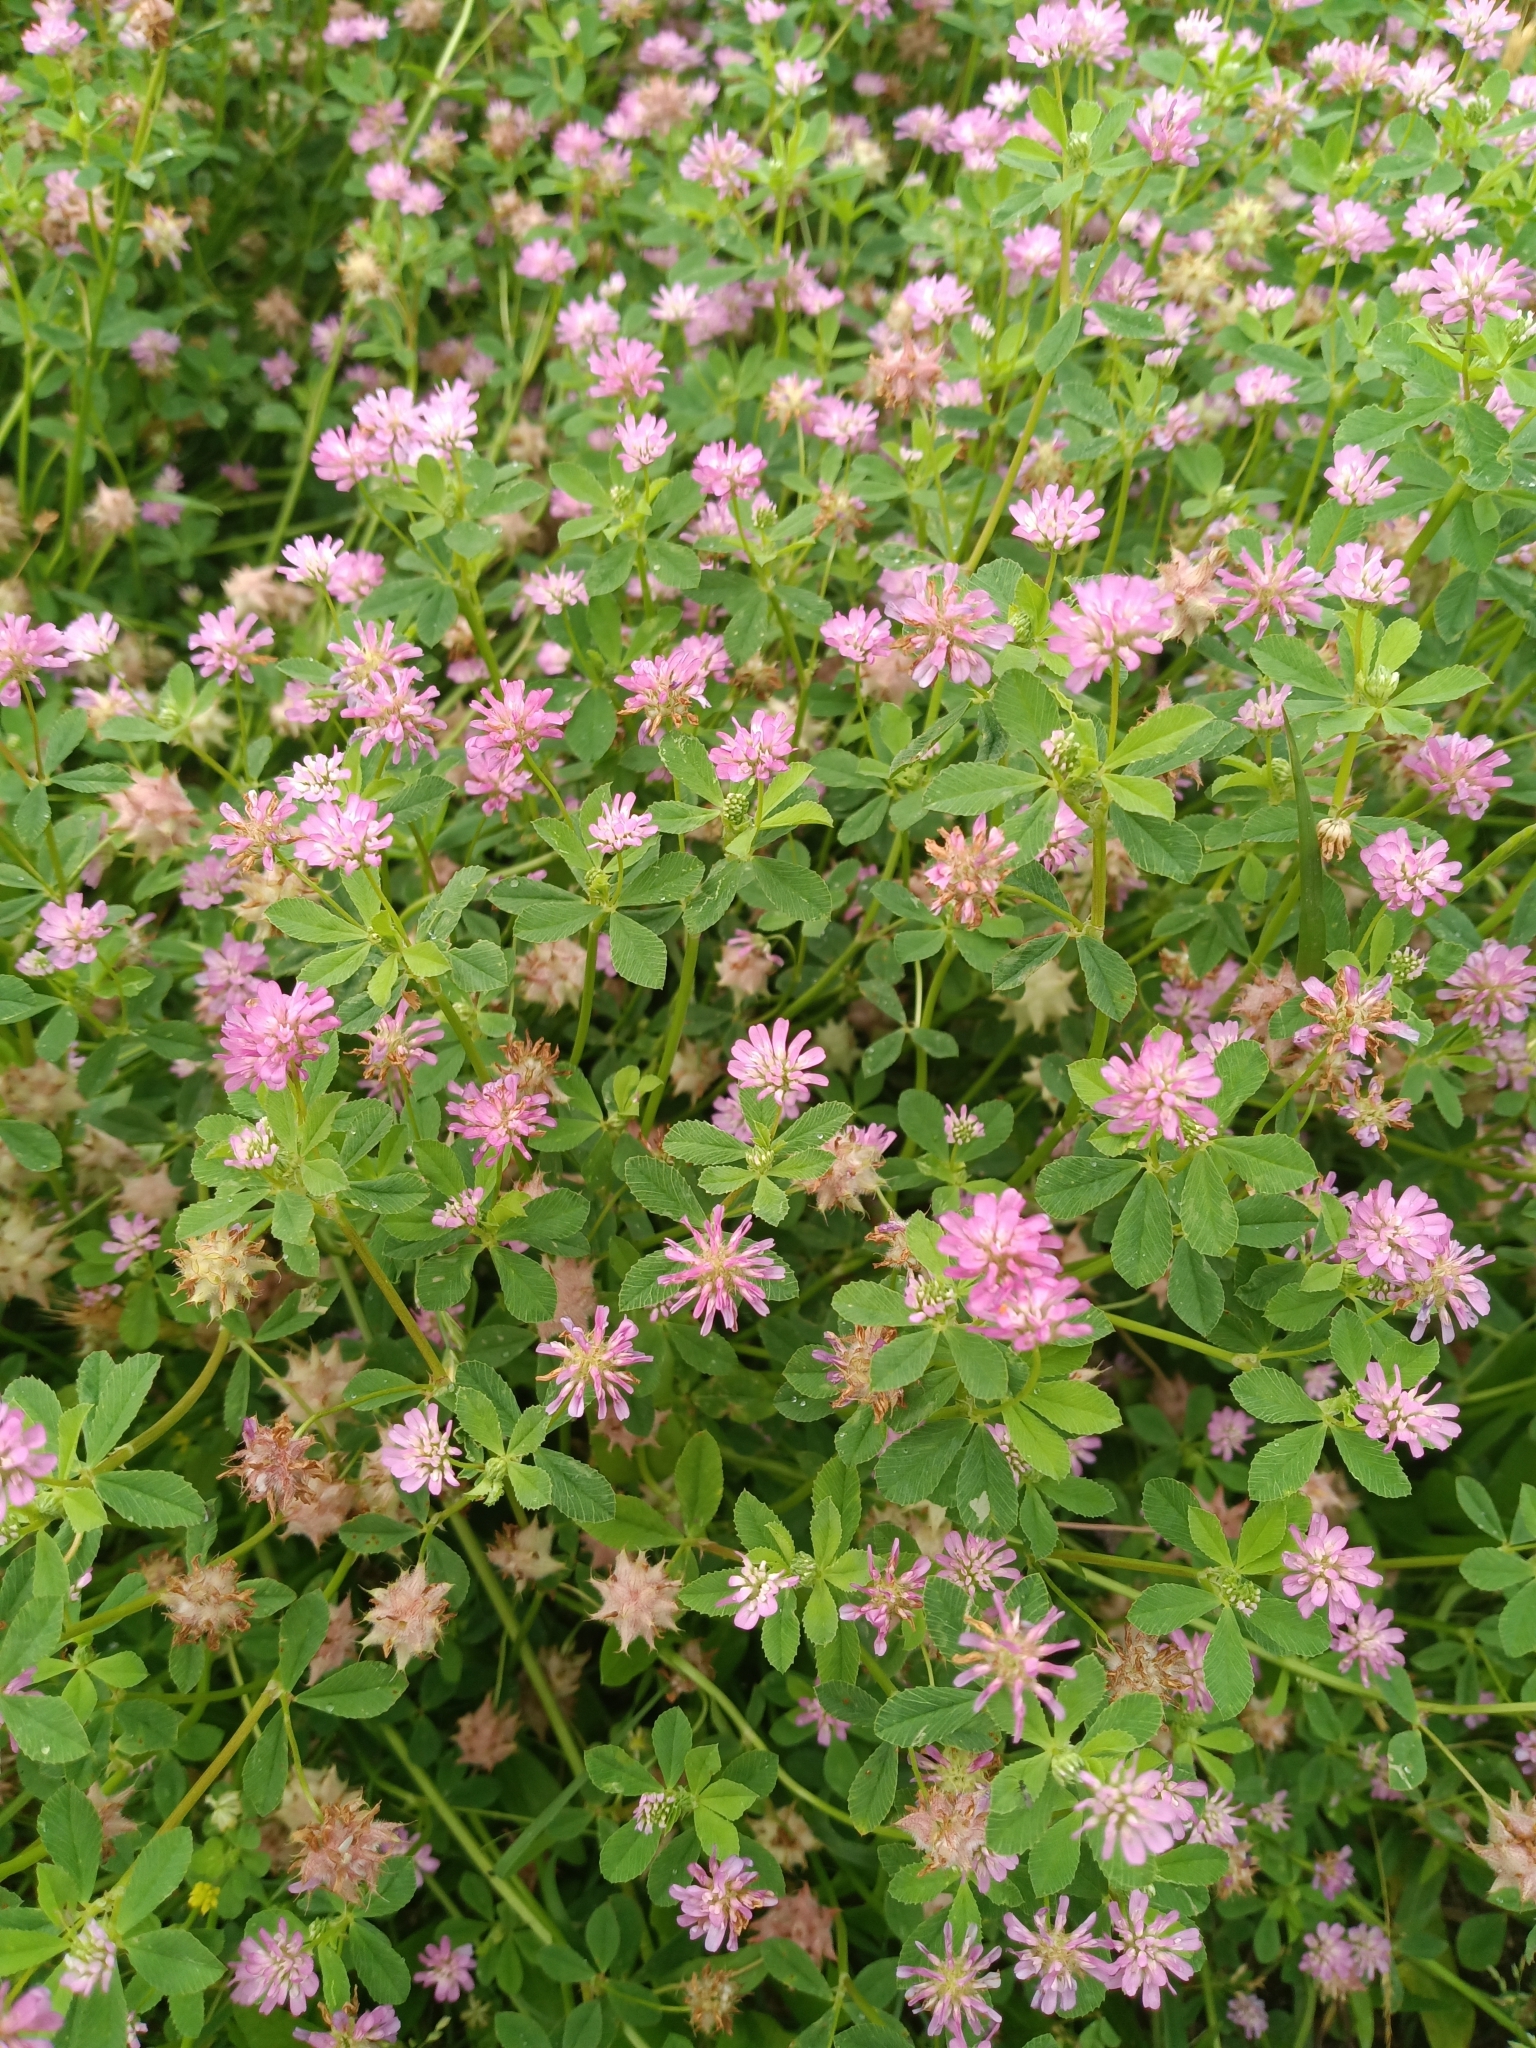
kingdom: Plantae
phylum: Tracheophyta
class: Magnoliopsida
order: Fabales
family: Fabaceae
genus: Trifolium
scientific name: Trifolium resupinatum
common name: Reversed clover
